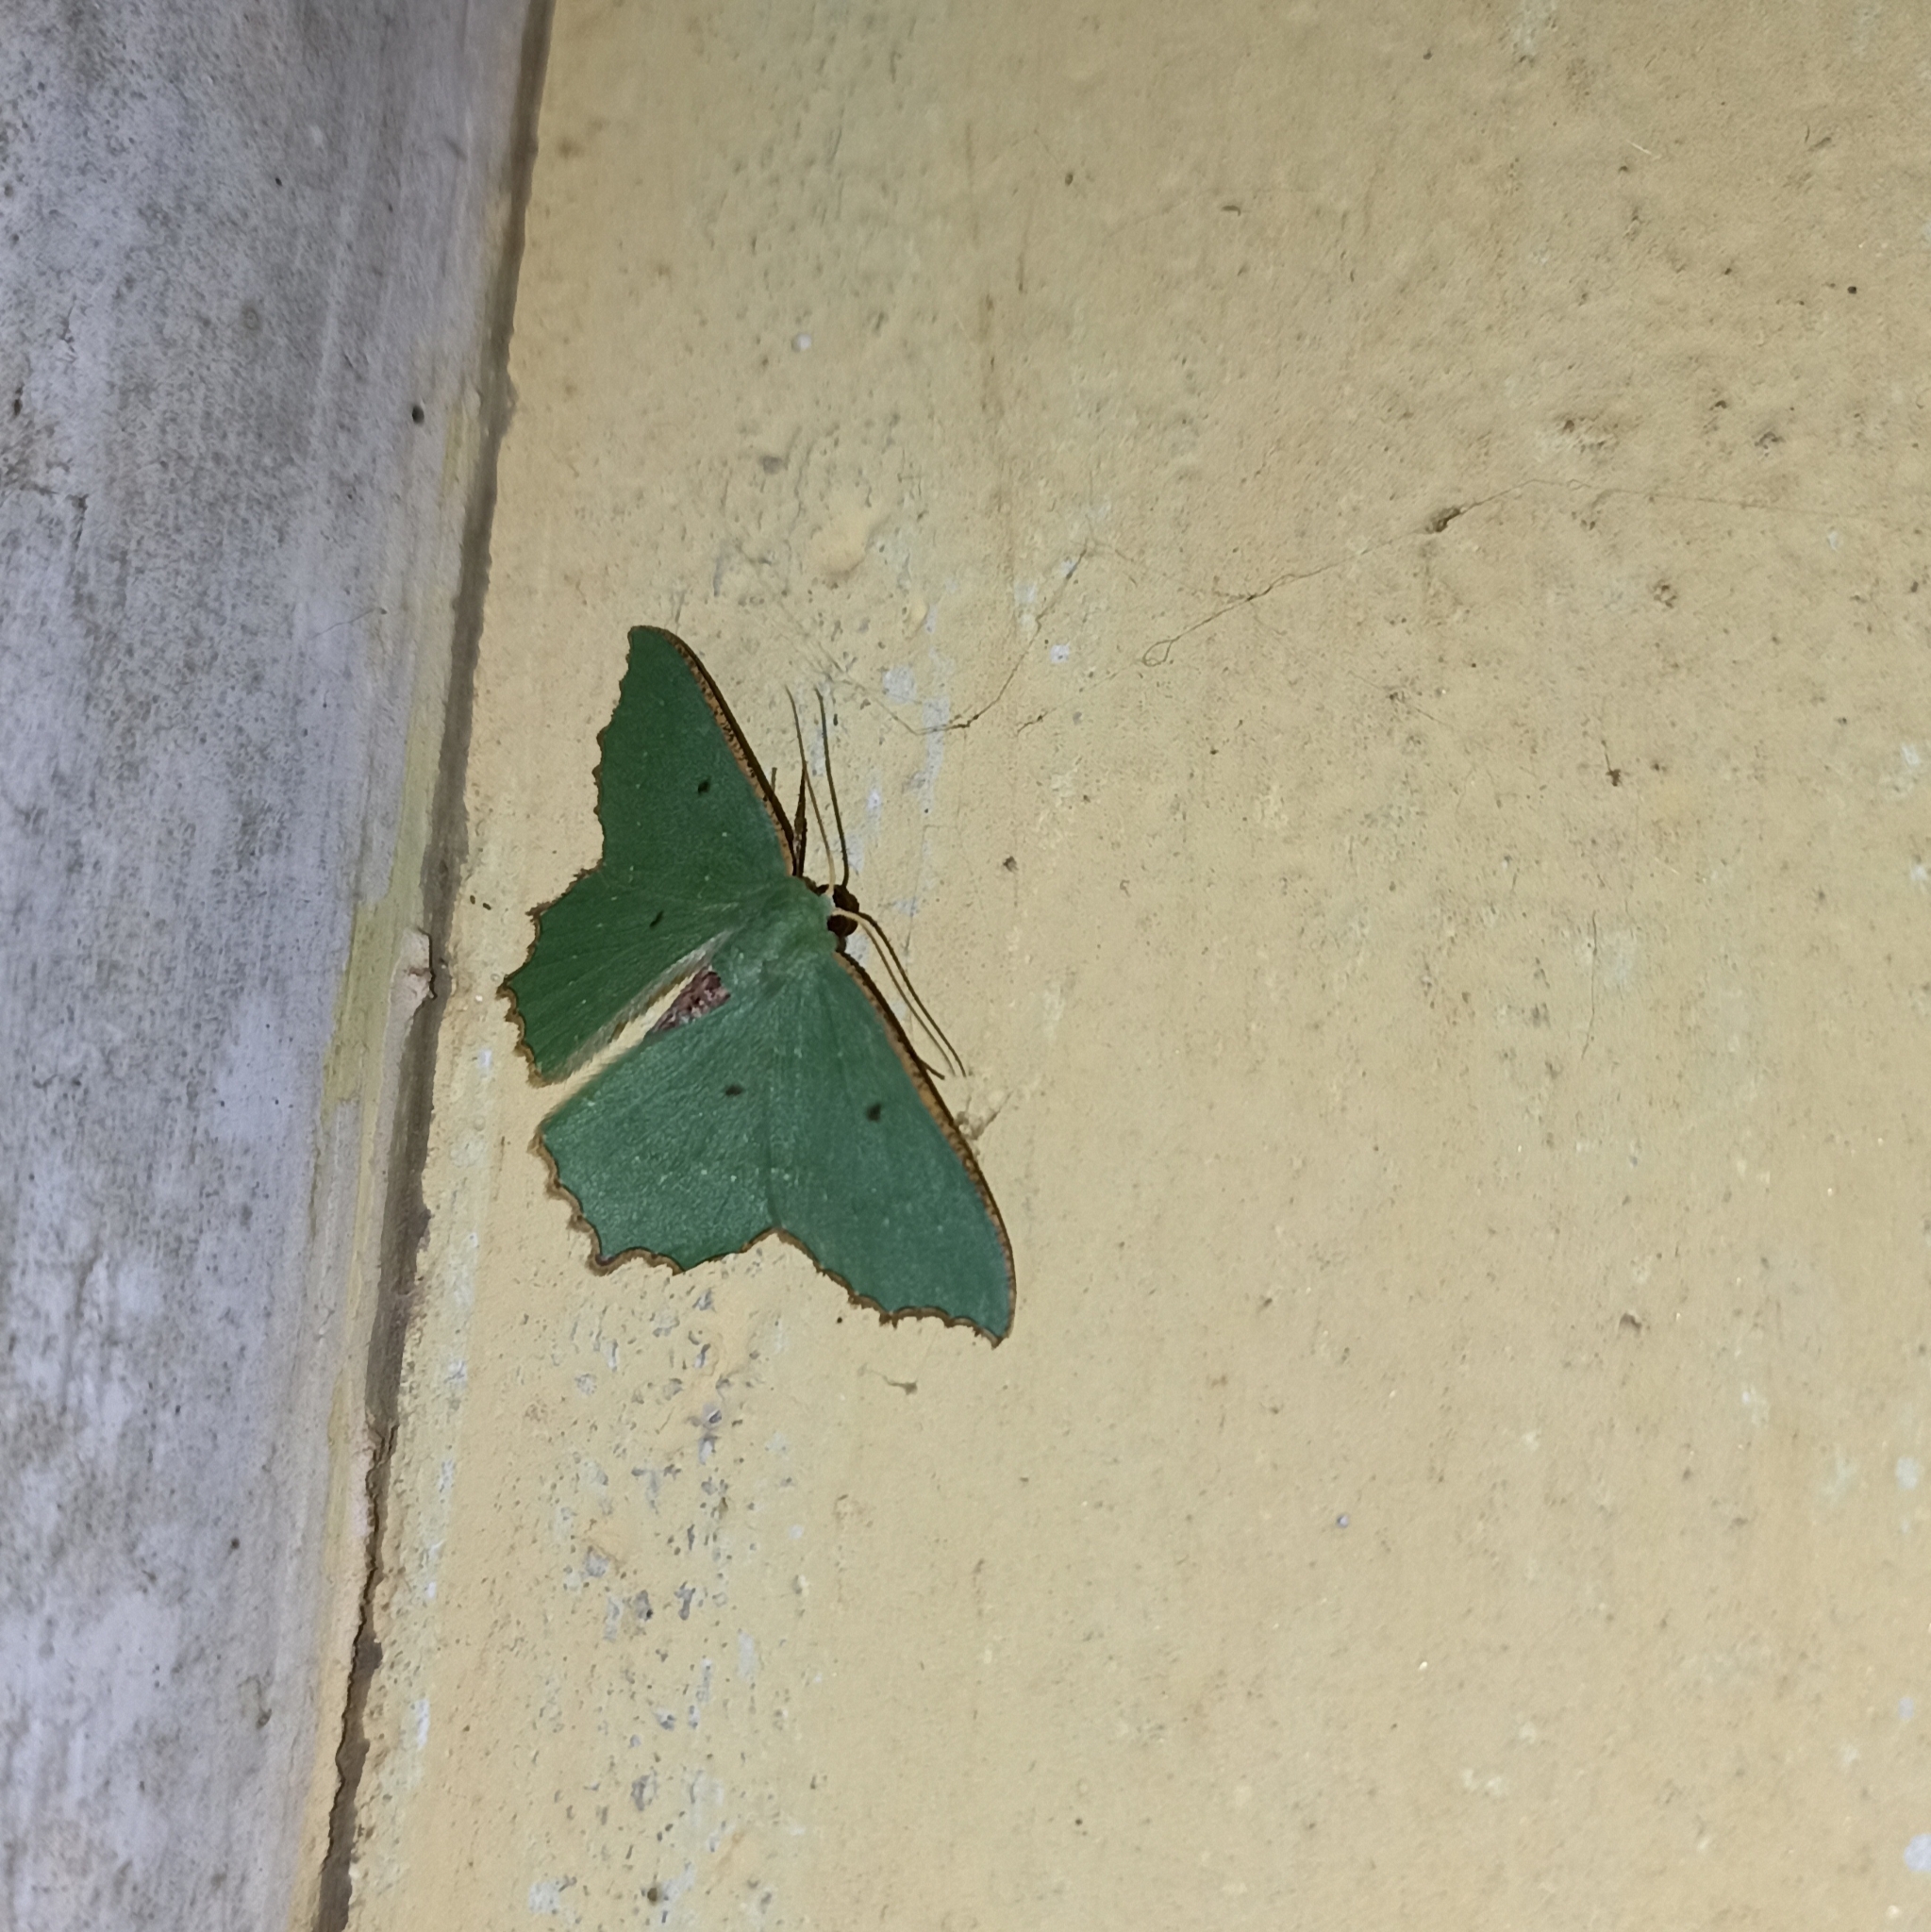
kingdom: Animalia
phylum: Arthropoda
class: Insecta
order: Lepidoptera
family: Geometridae
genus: Episothalma
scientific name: Episothalma robustaria
